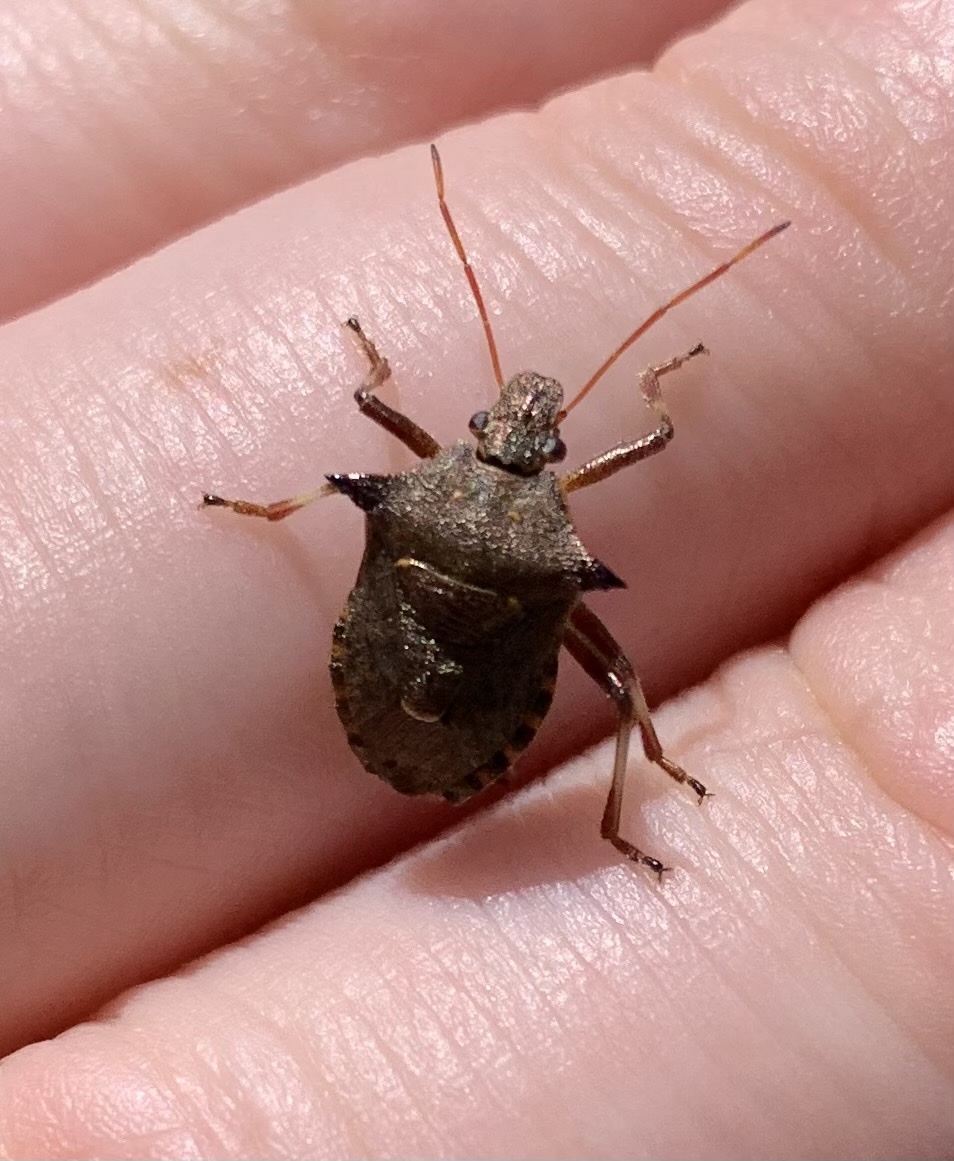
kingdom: Animalia
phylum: Arthropoda
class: Insecta
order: Hemiptera
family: Pentatomidae
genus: Picromerus
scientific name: Picromerus bidens
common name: Spiked shieldbug
